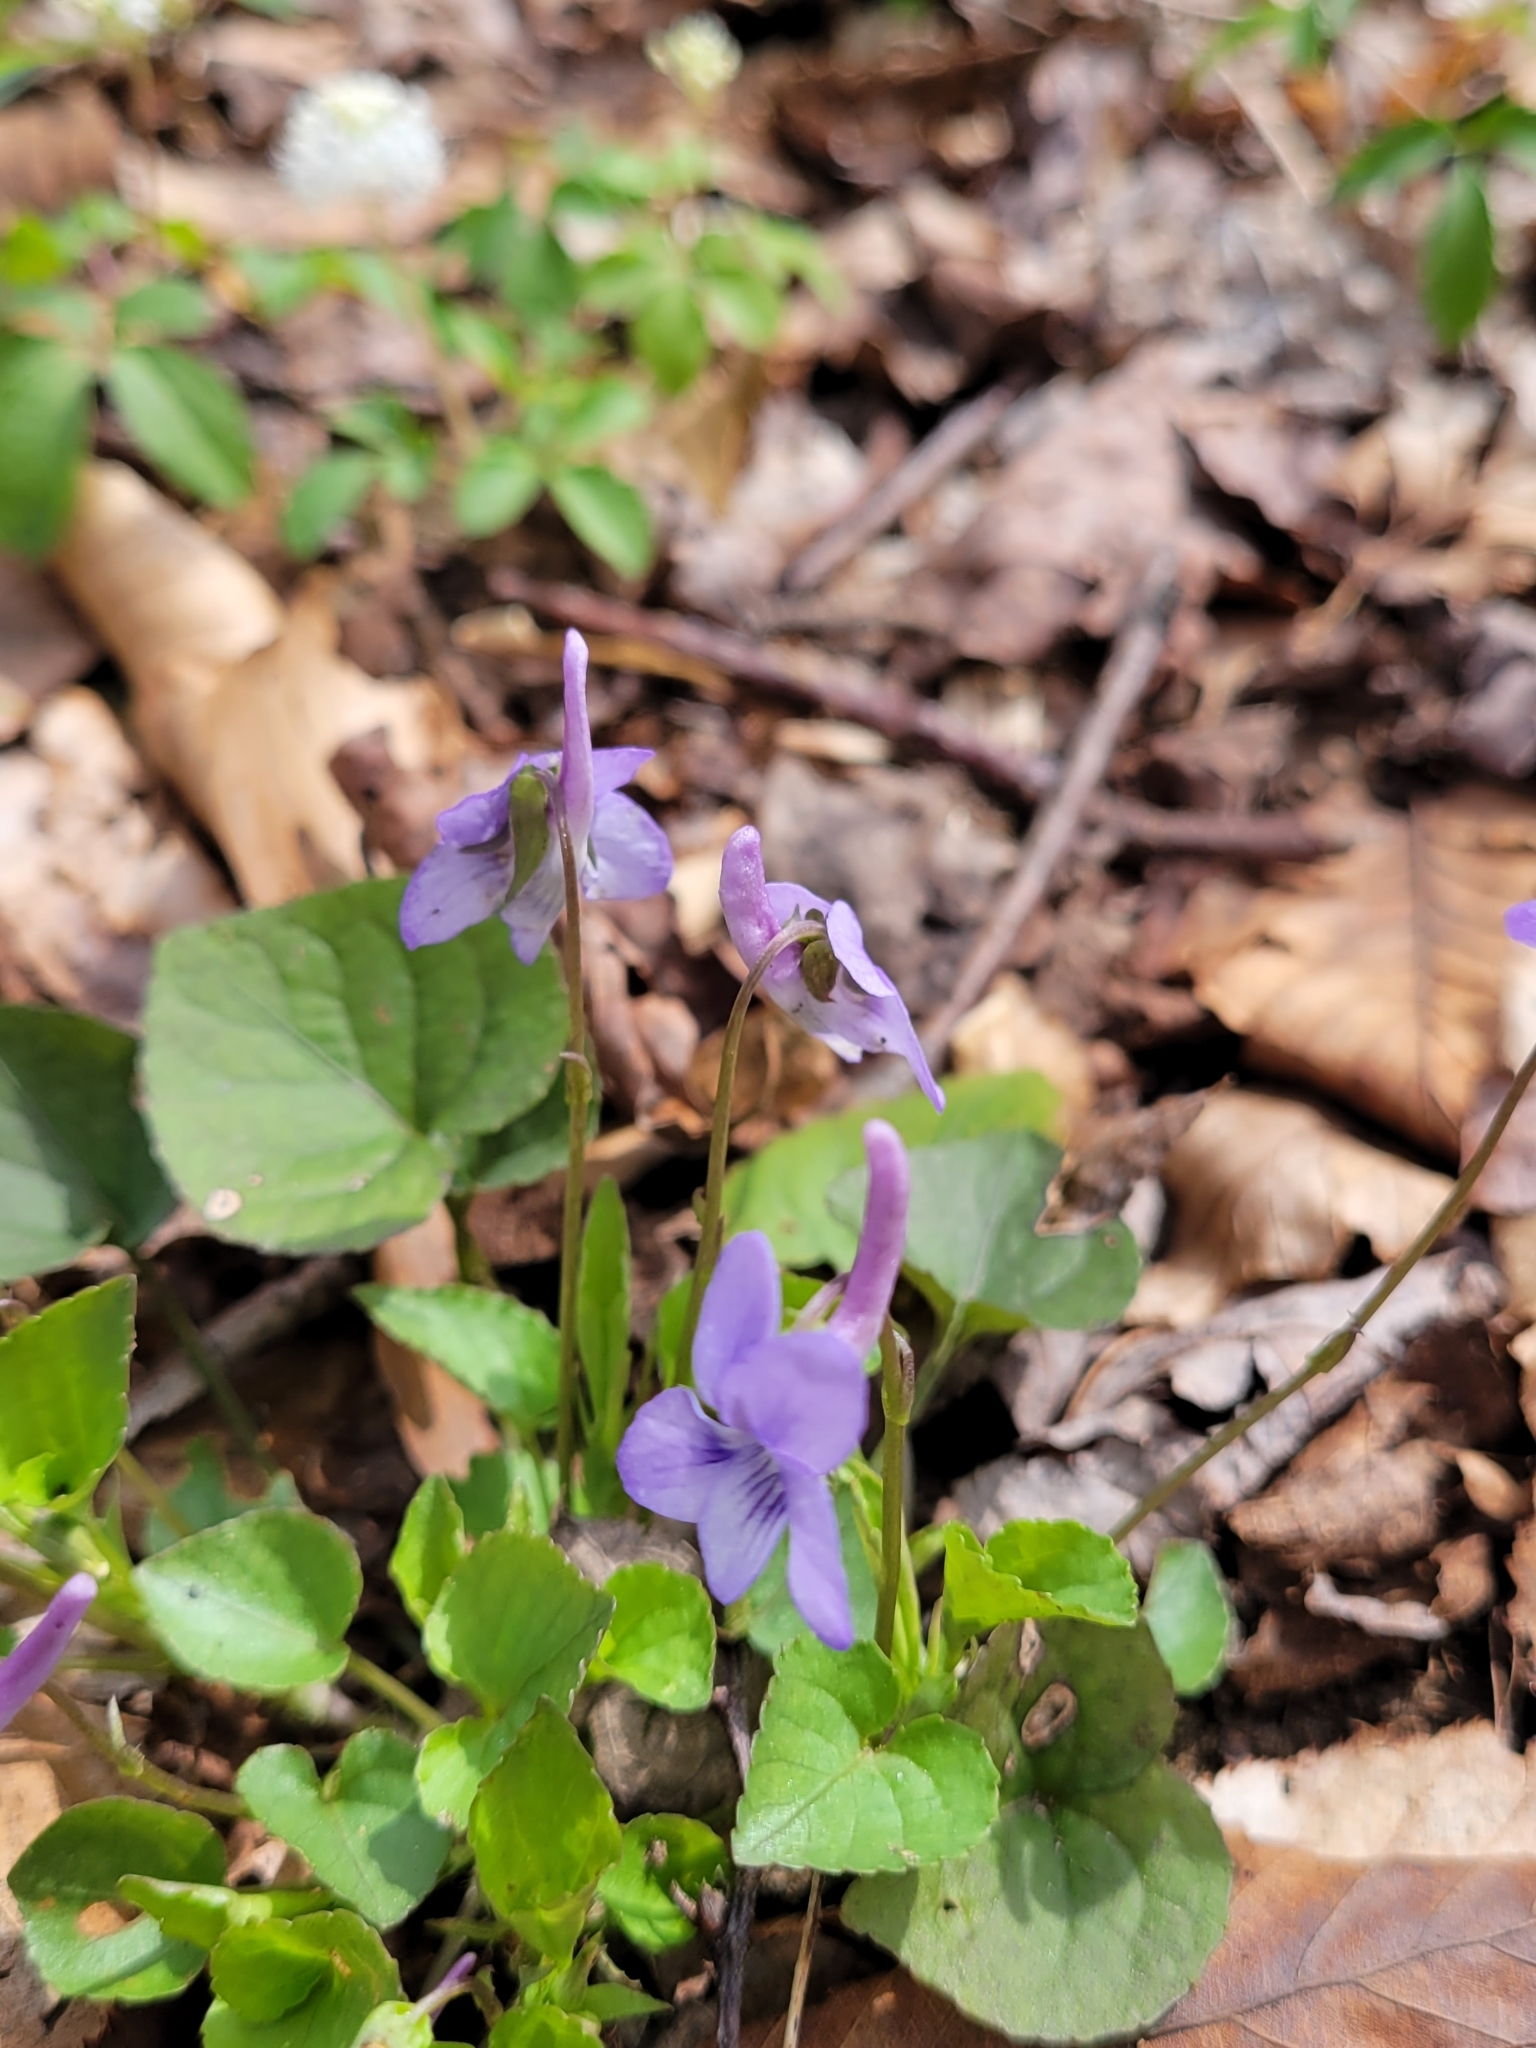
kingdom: Plantae
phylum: Tracheophyta
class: Magnoliopsida
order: Malpighiales
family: Violaceae
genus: Viola
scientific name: Viola rostrata
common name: Long-spur violet
